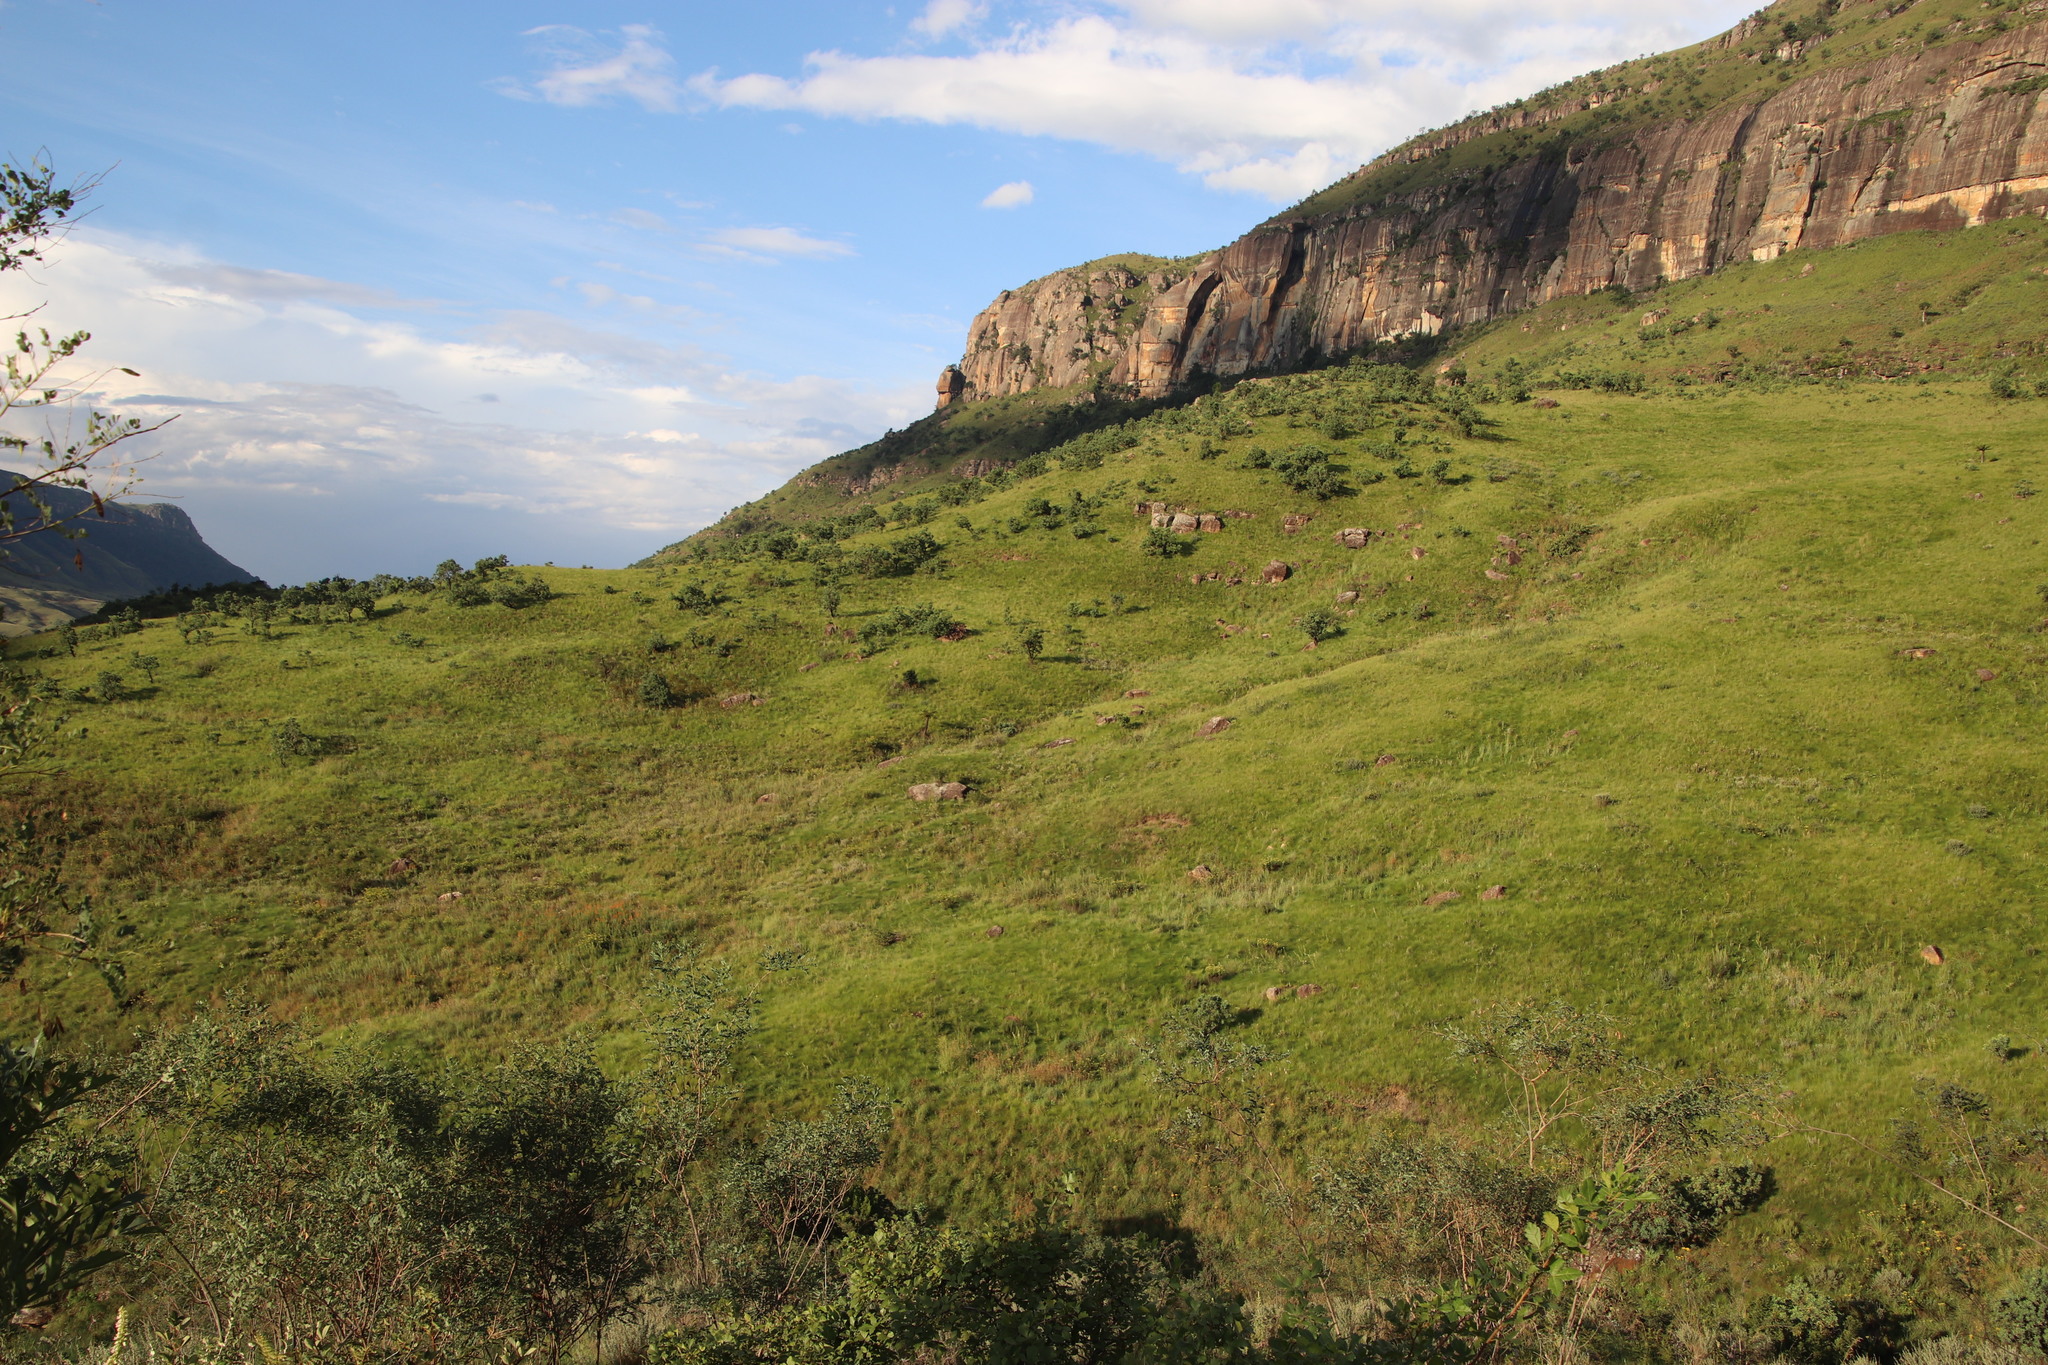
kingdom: Plantae
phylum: Tracheophyta
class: Magnoliopsida
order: Proteales
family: Proteaceae
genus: Protea
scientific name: Protea caffra
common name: Common sugarbush
